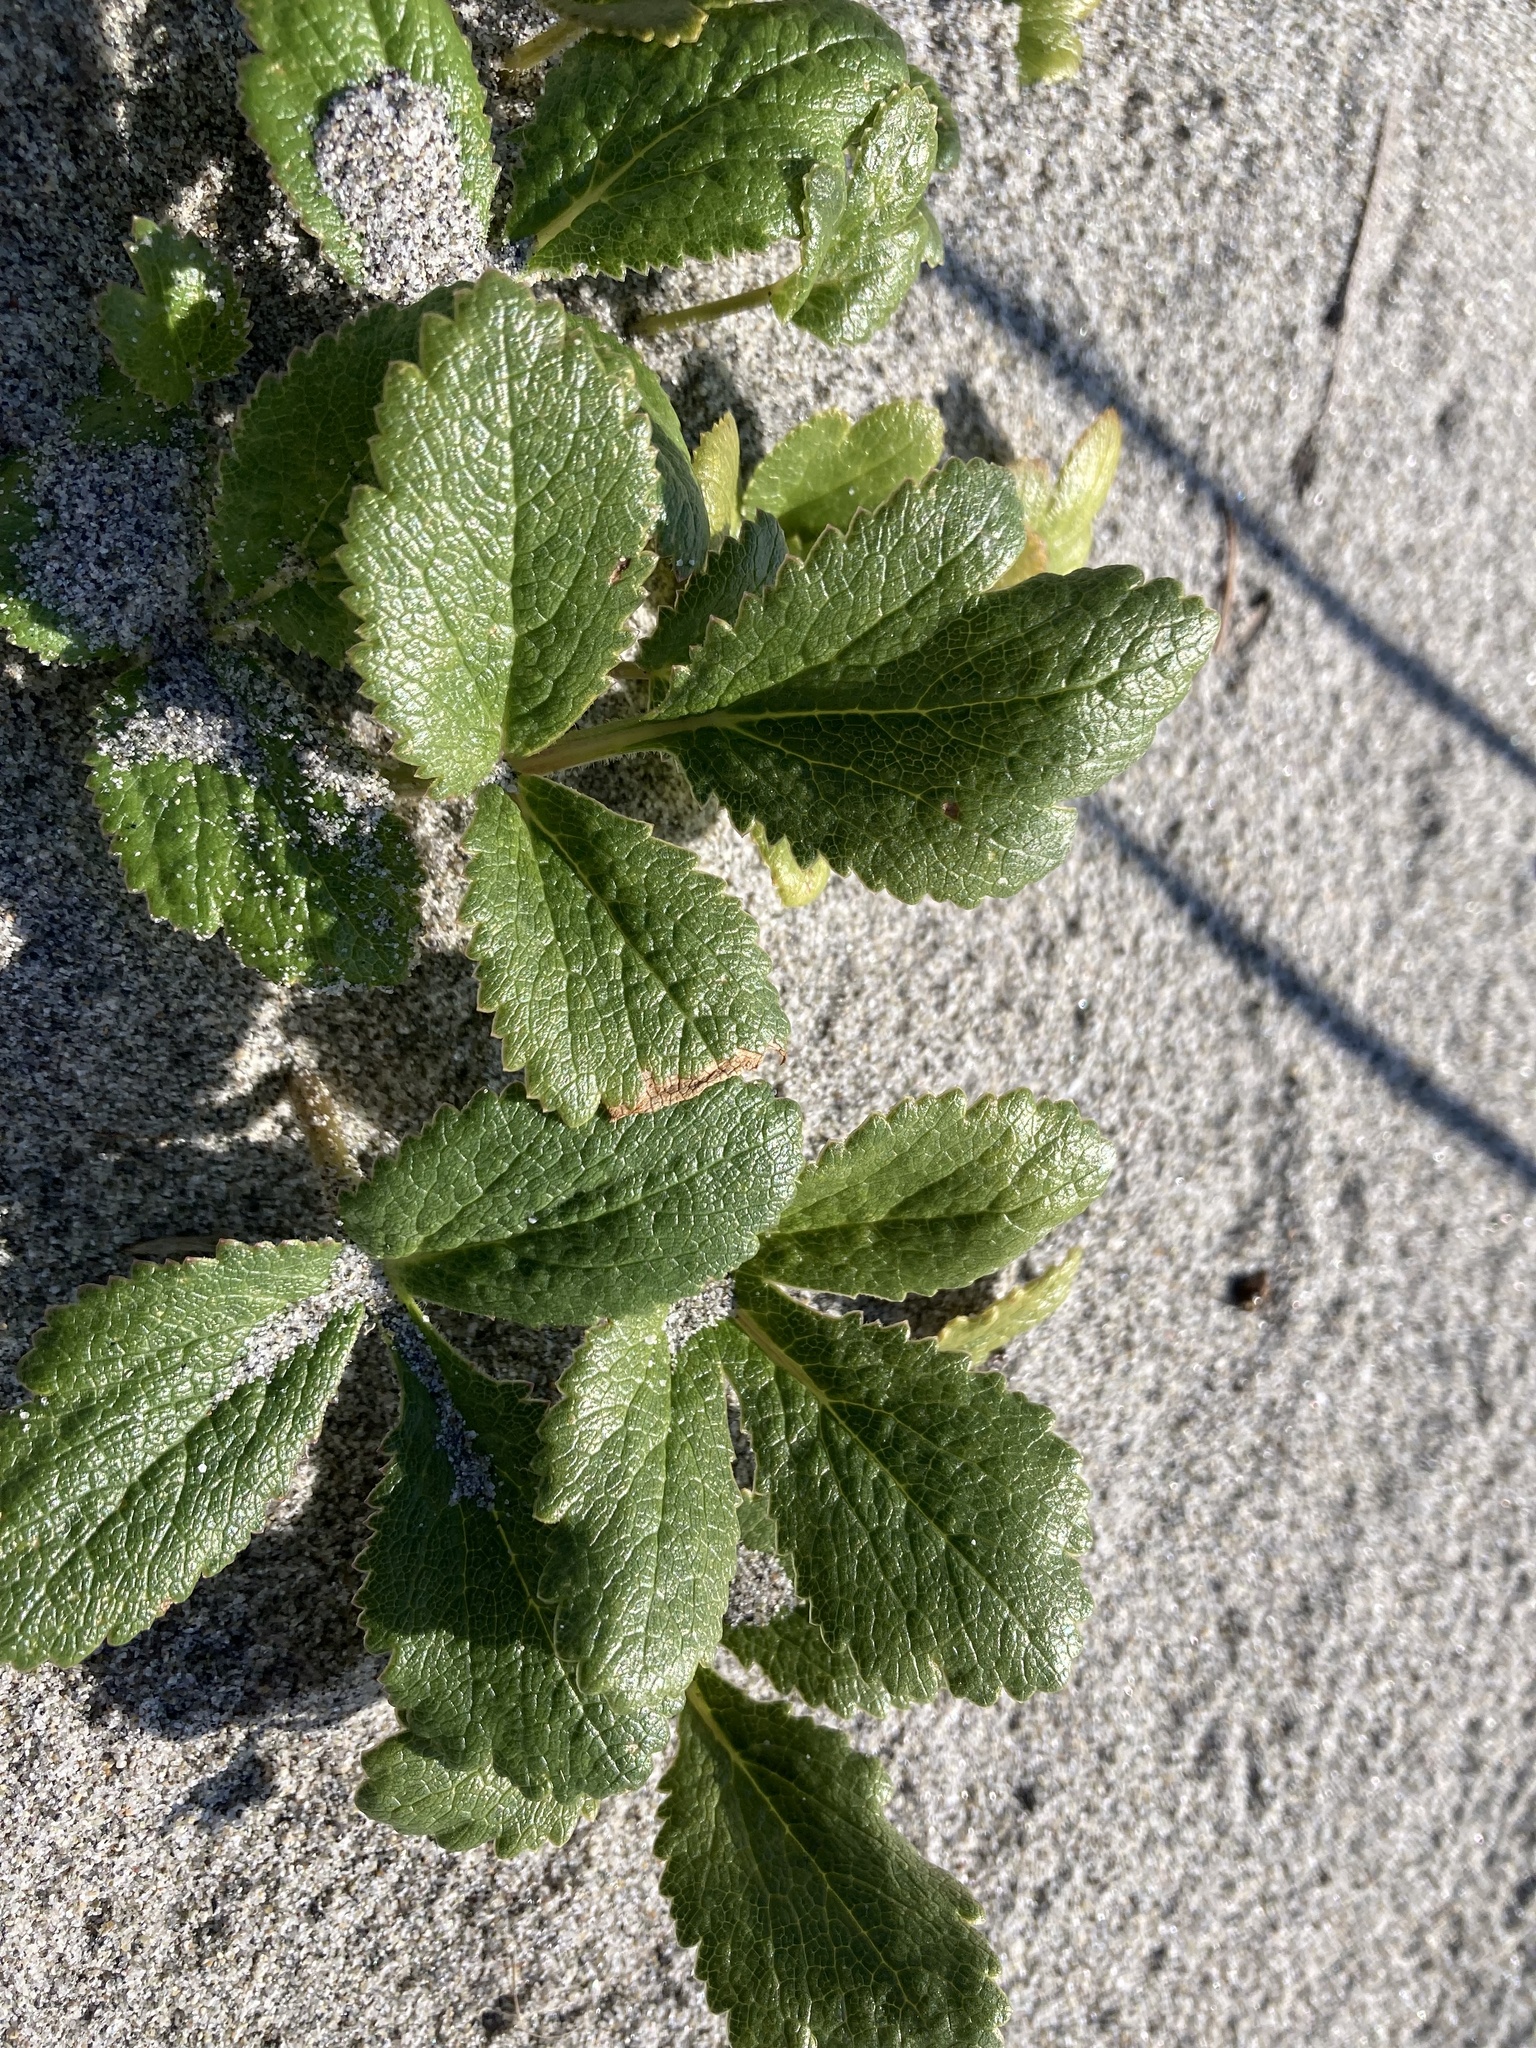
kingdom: Plantae
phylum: Tracheophyta
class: Magnoliopsida
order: Apiales
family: Apiaceae
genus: Angelica
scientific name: Angelica leiocarpa
